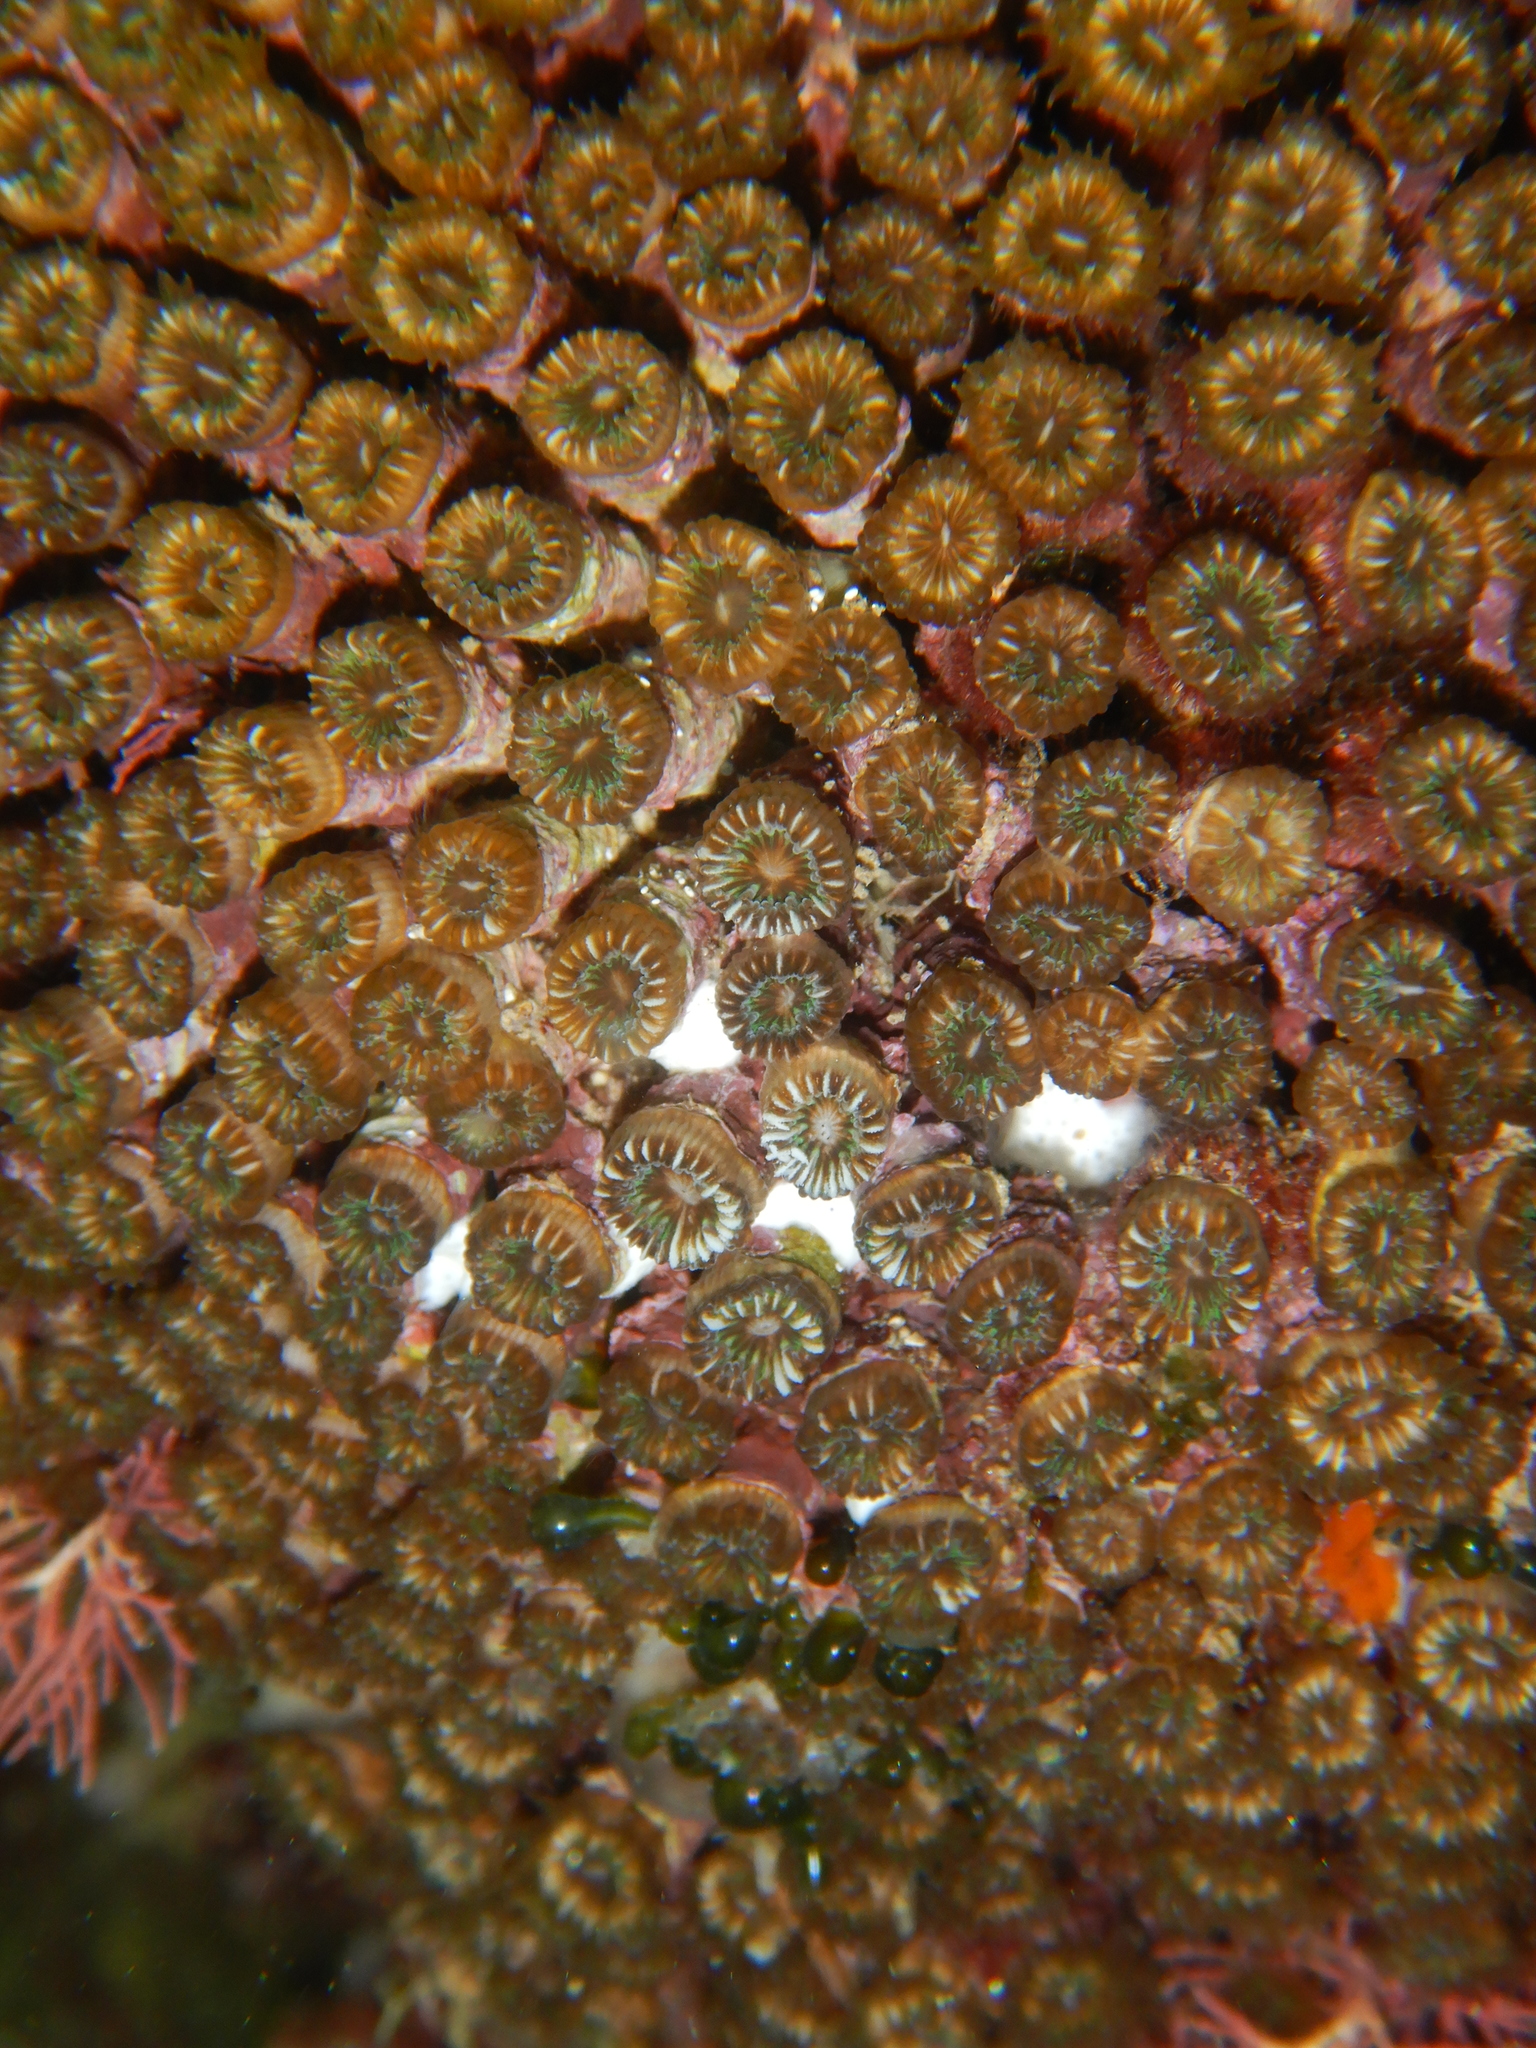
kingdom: Animalia
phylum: Cnidaria
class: Anthozoa
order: Scleractinia
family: Cladocoridae
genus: Cladocora
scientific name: Cladocora caespitosa
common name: Cladocora
